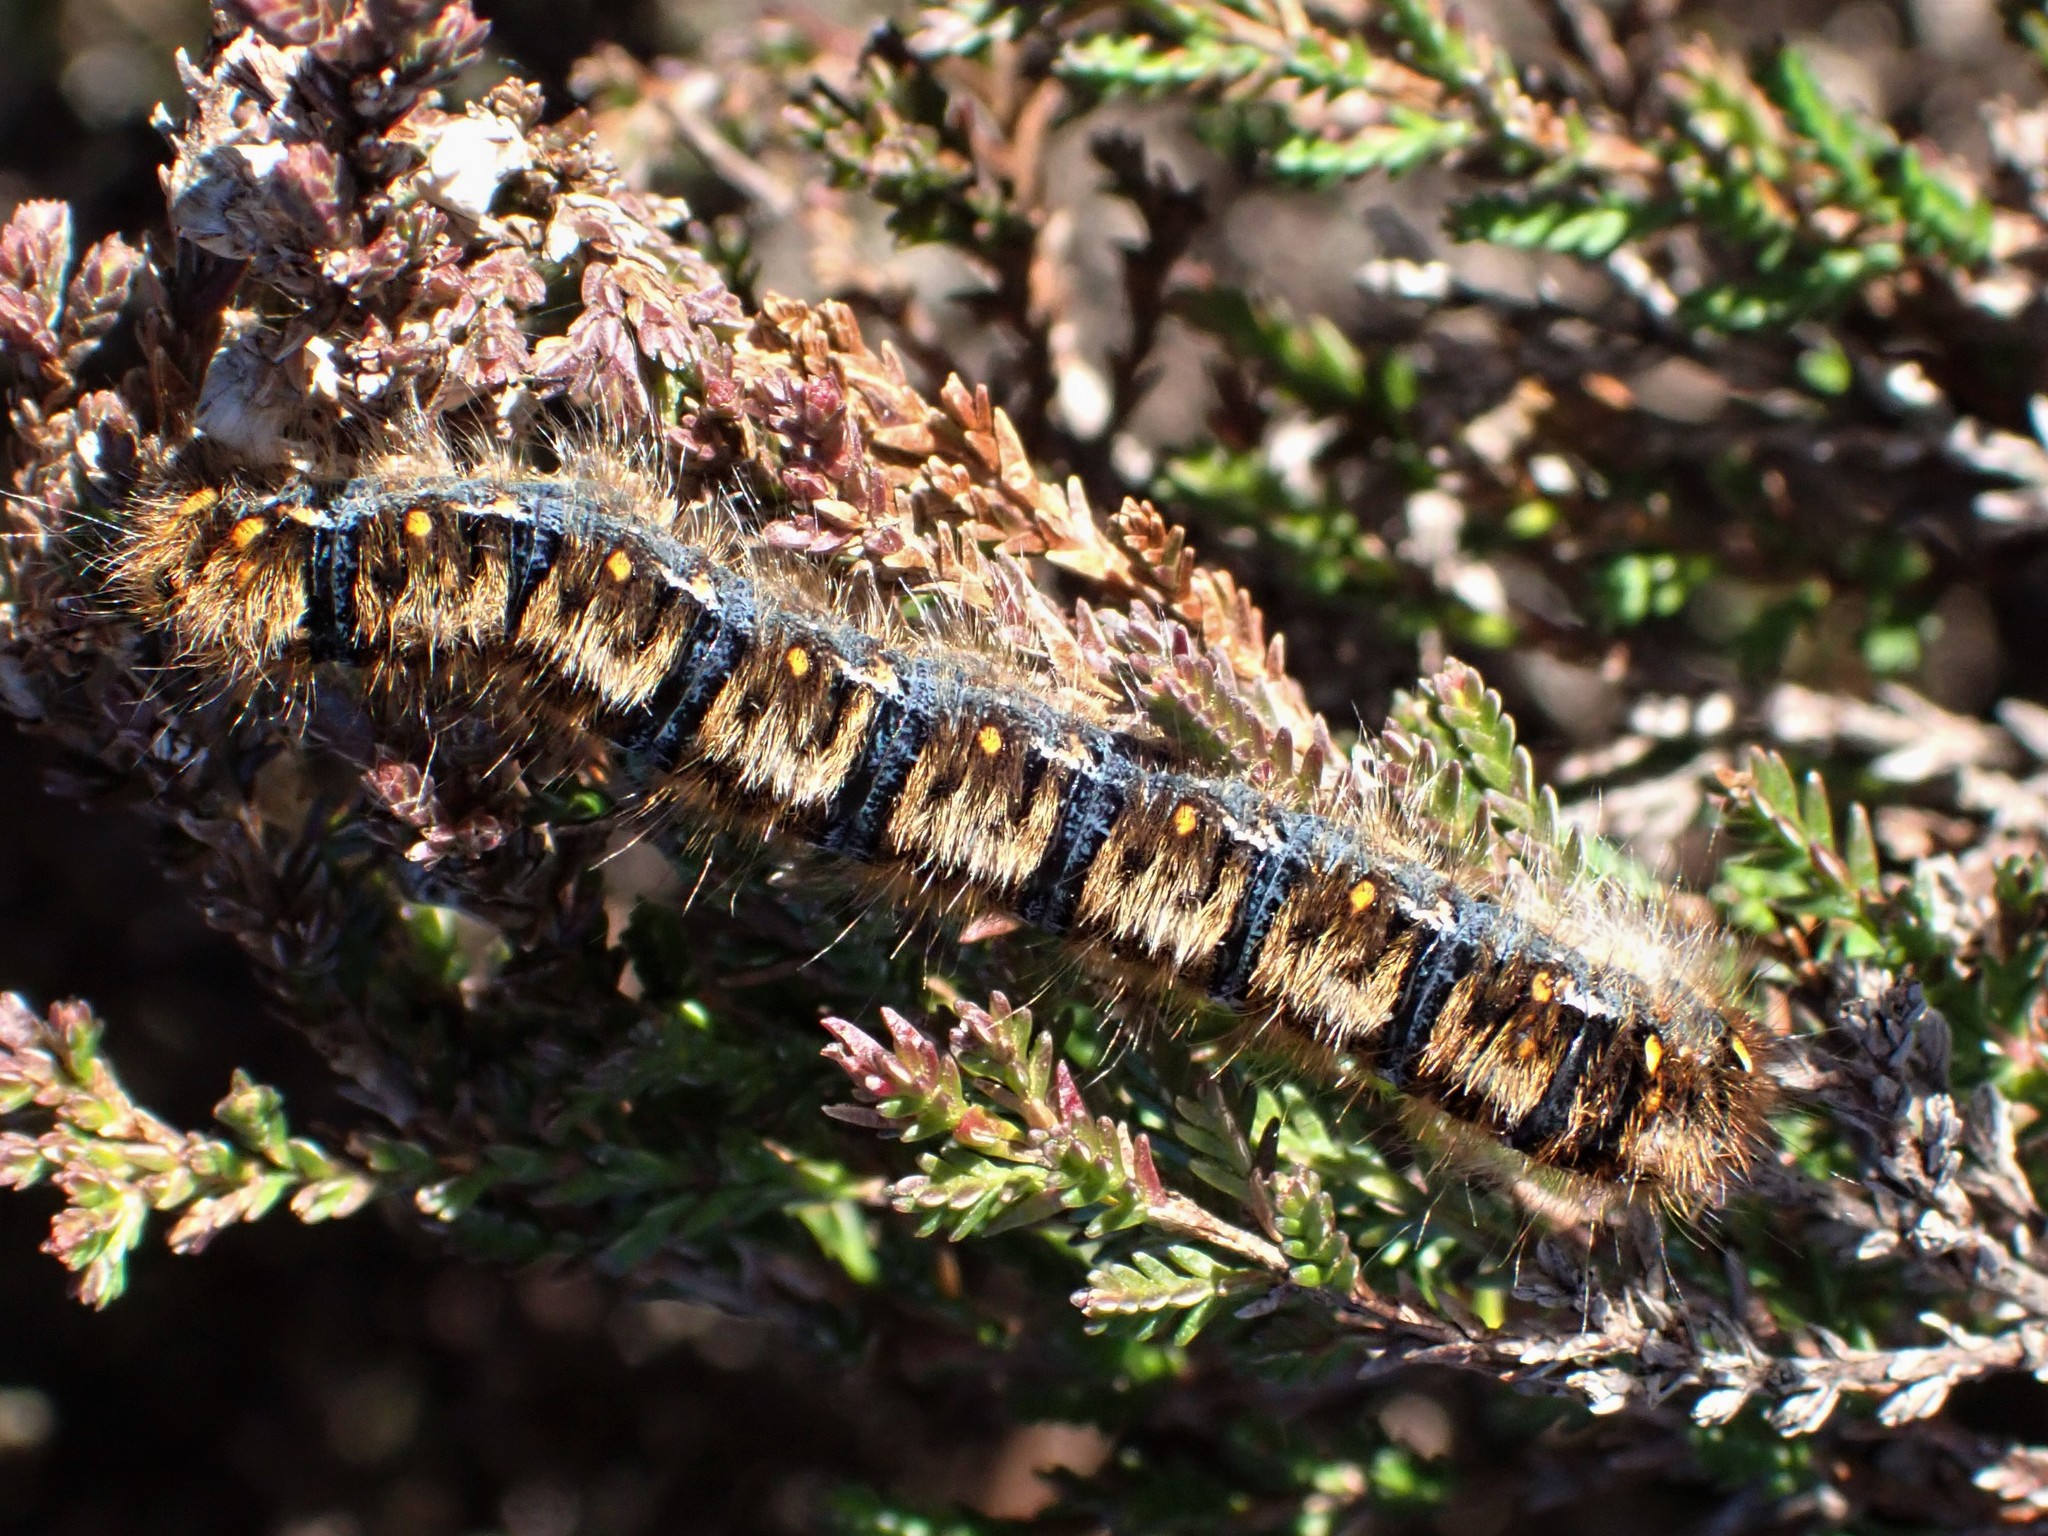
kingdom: Animalia
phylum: Arthropoda
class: Insecta
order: Lepidoptera
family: Lasiocampidae
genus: Lasiocampa
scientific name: Lasiocampa quercus
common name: Oak eggar
